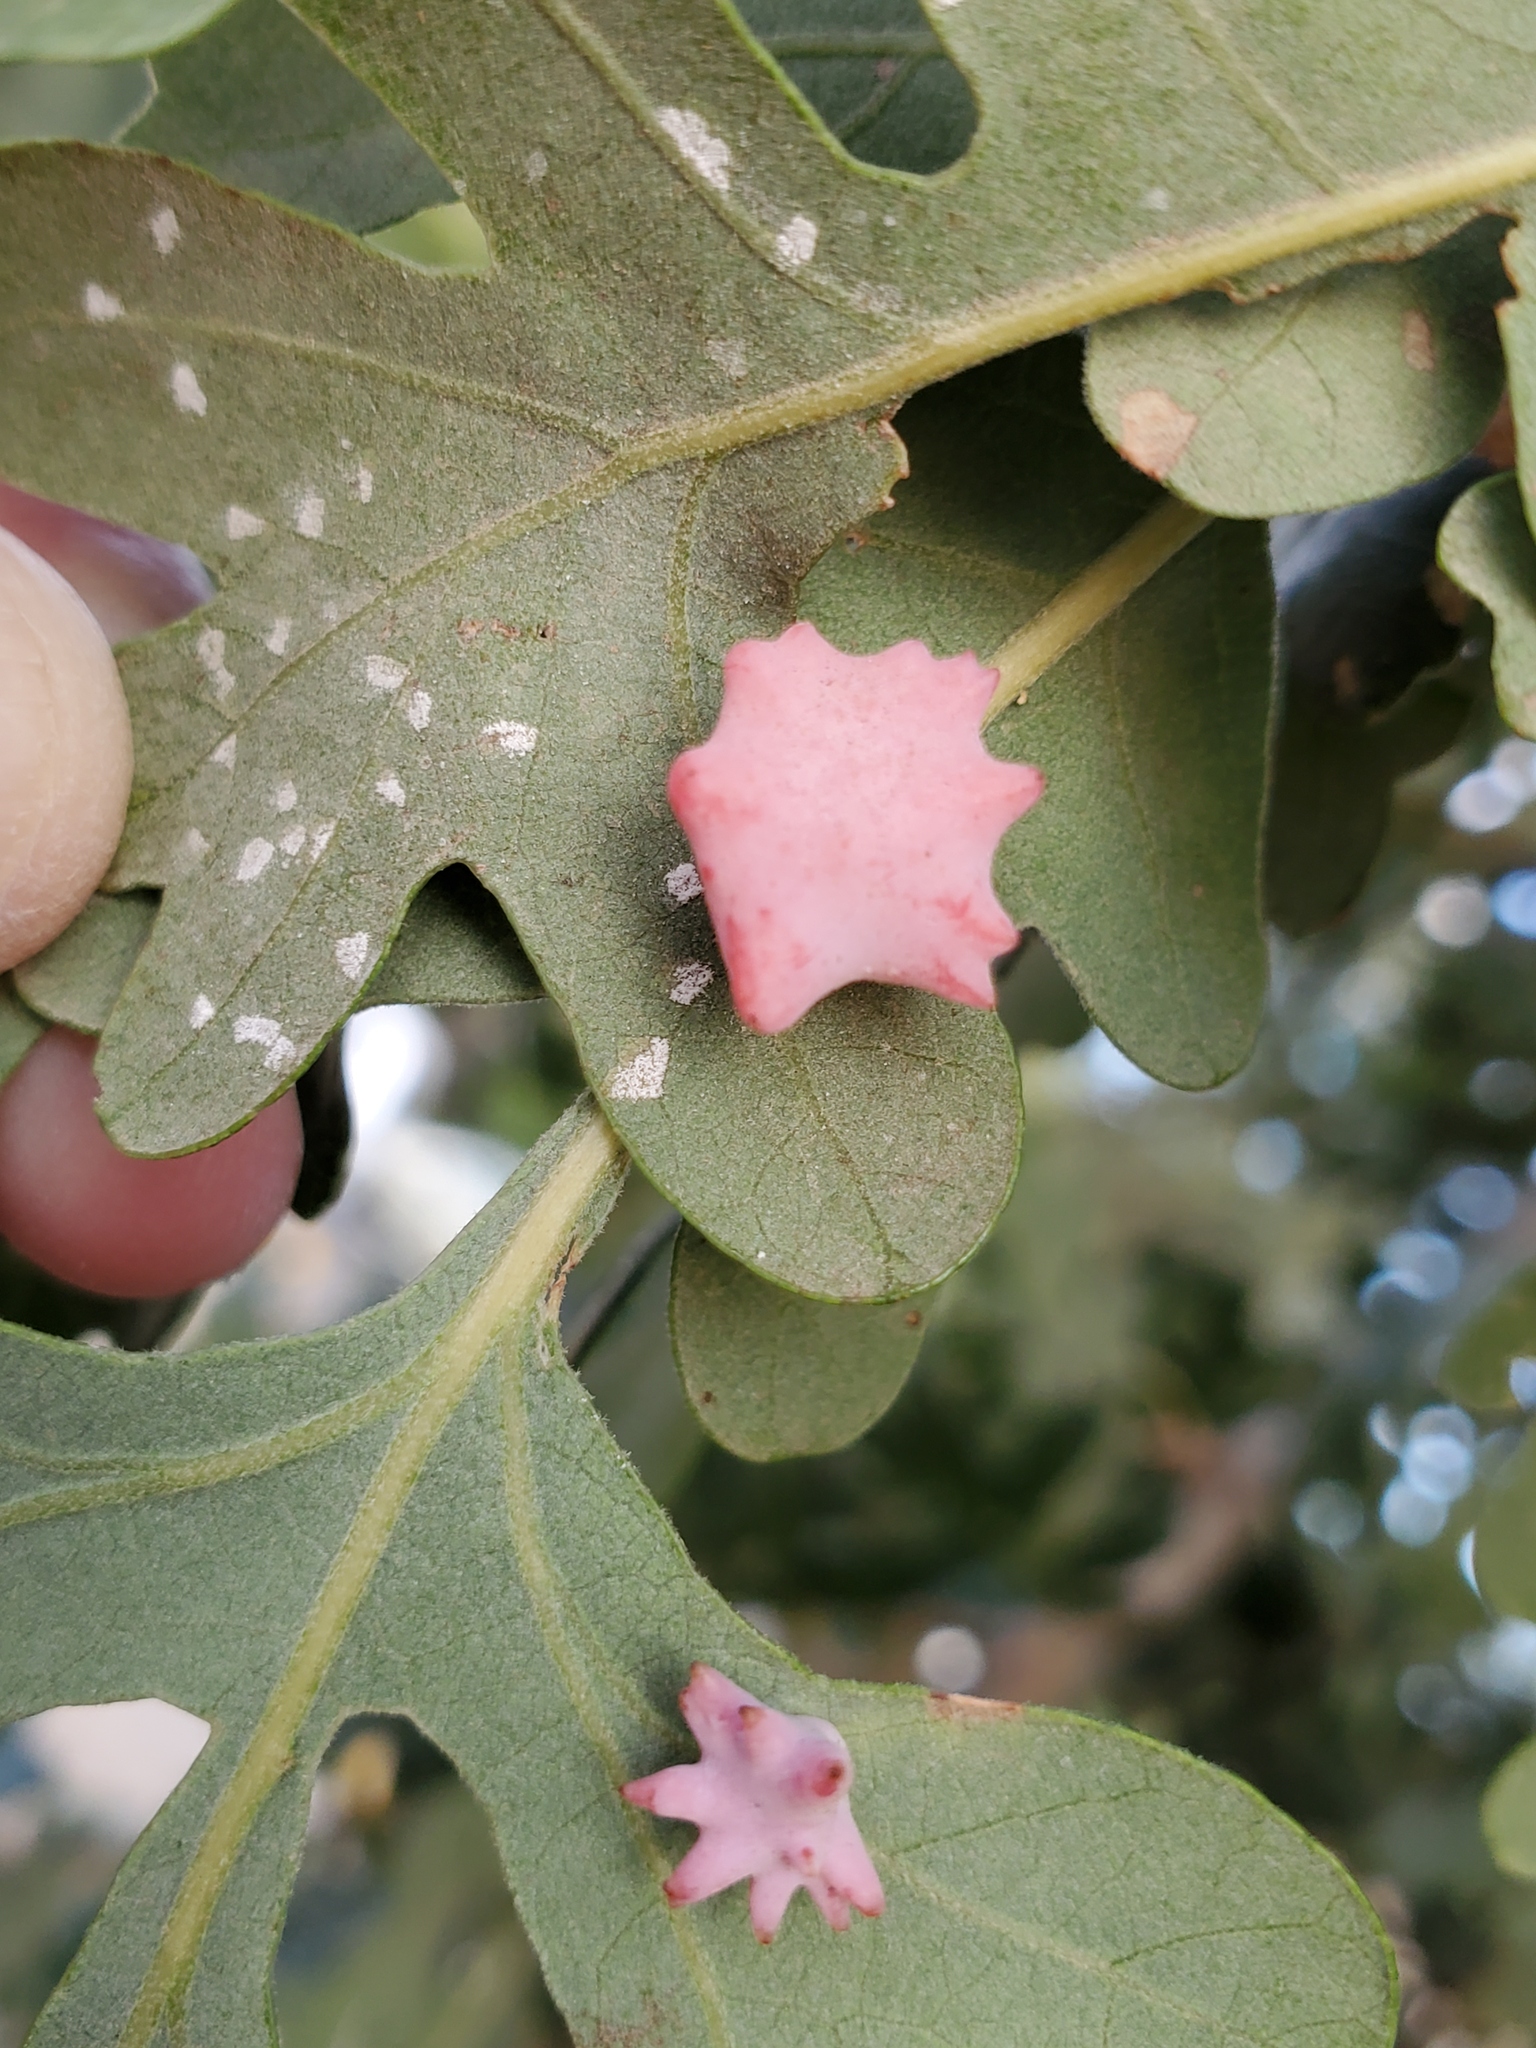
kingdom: Animalia
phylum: Arthropoda
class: Insecta
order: Hymenoptera
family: Cynipidae
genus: Cynips
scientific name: Cynips douglasi
